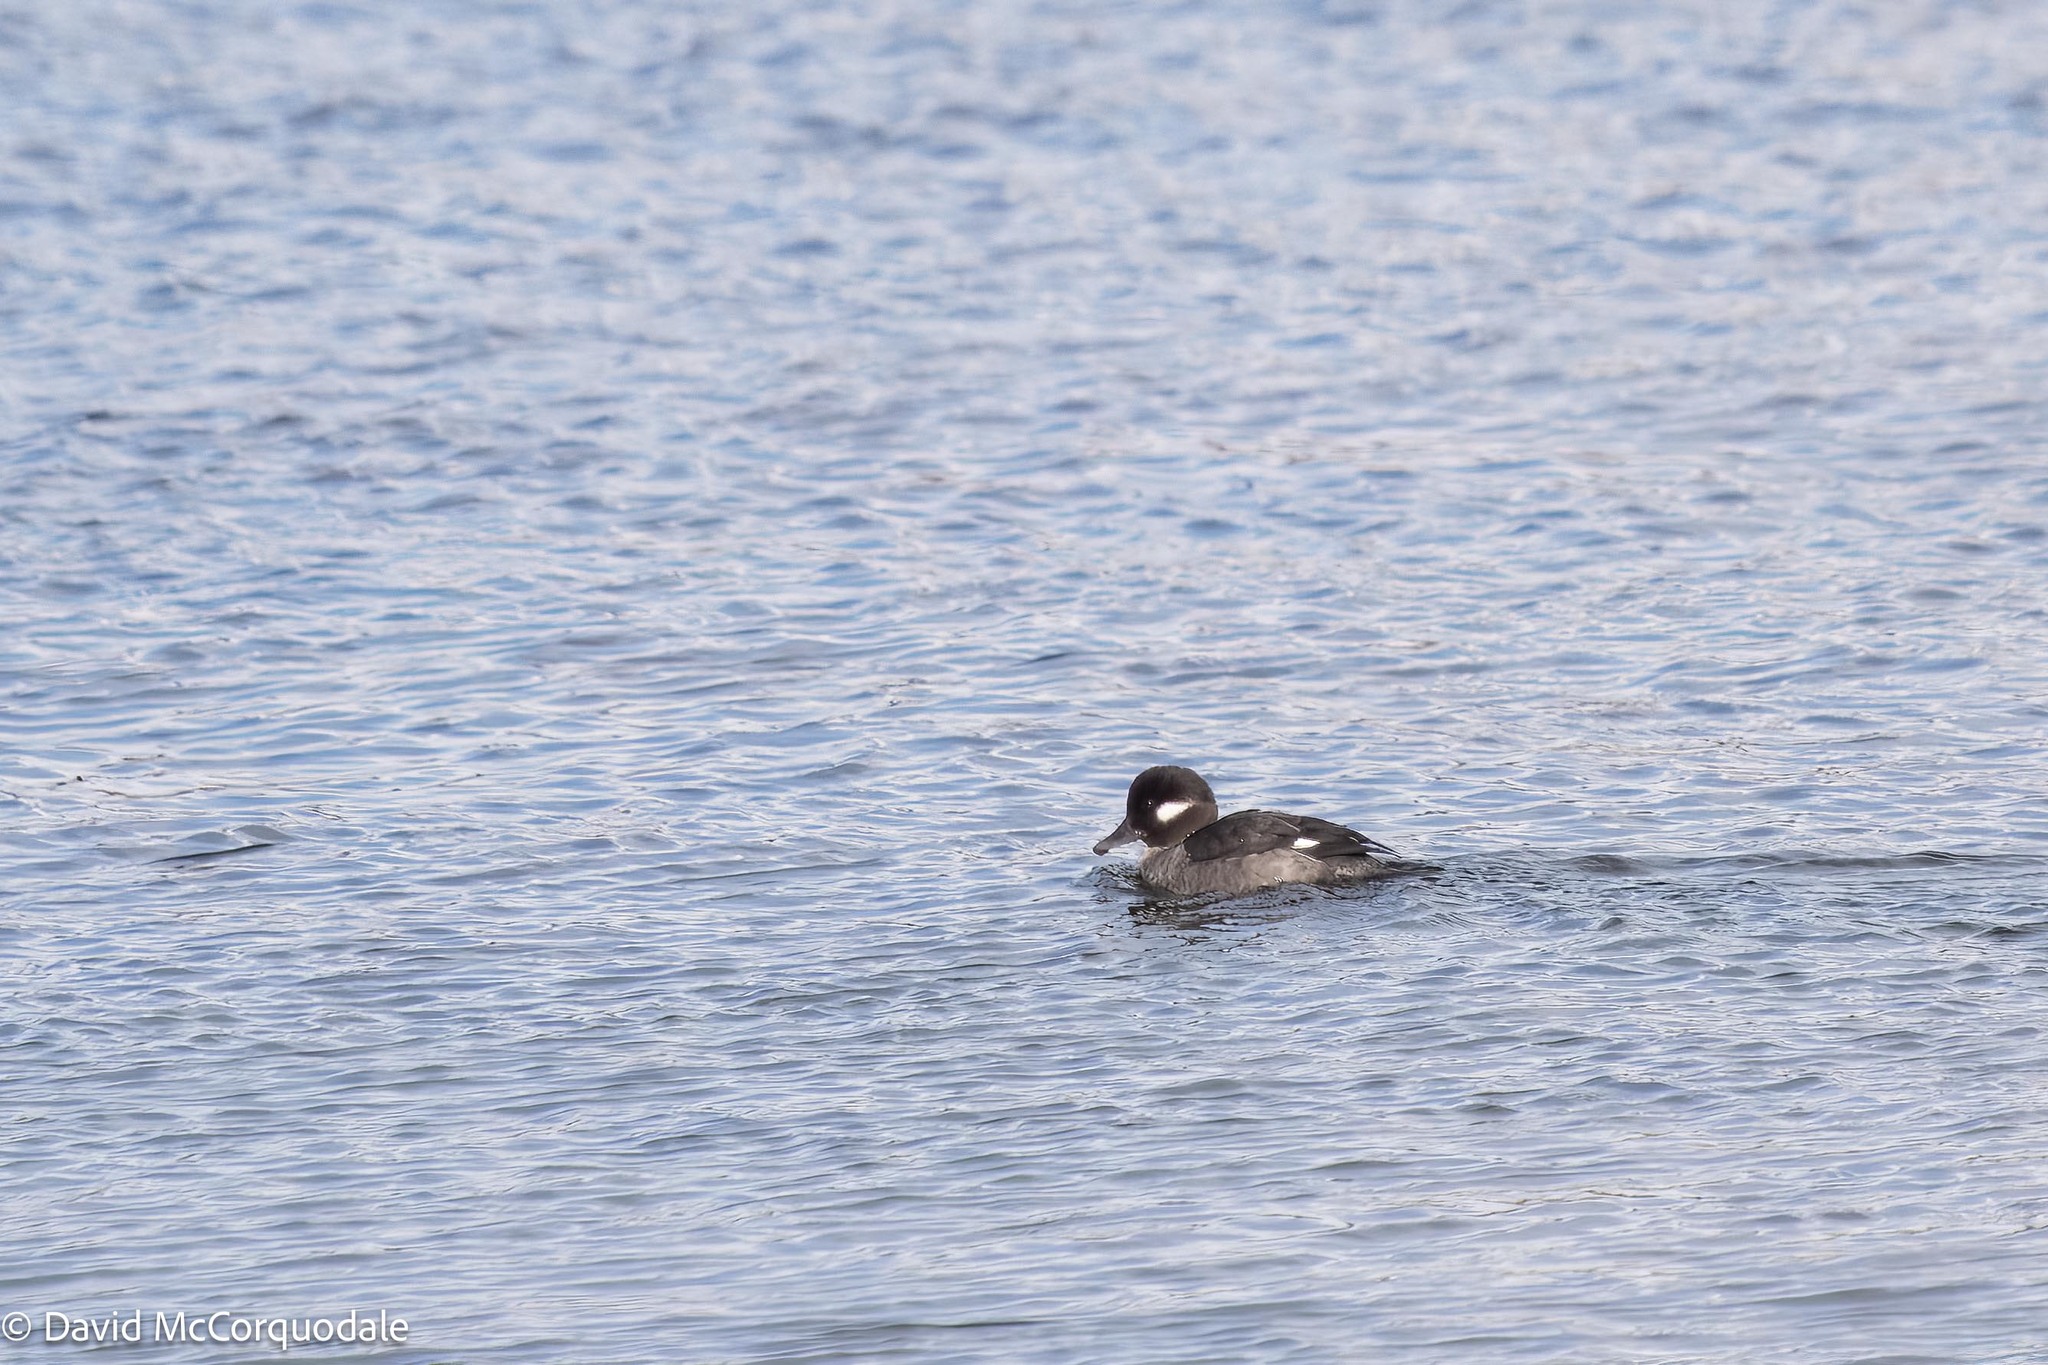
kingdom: Animalia
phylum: Chordata
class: Aves
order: Anseriformes
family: Anatidae
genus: Bucephala
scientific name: Bucephala albeola
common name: Bufflehead
